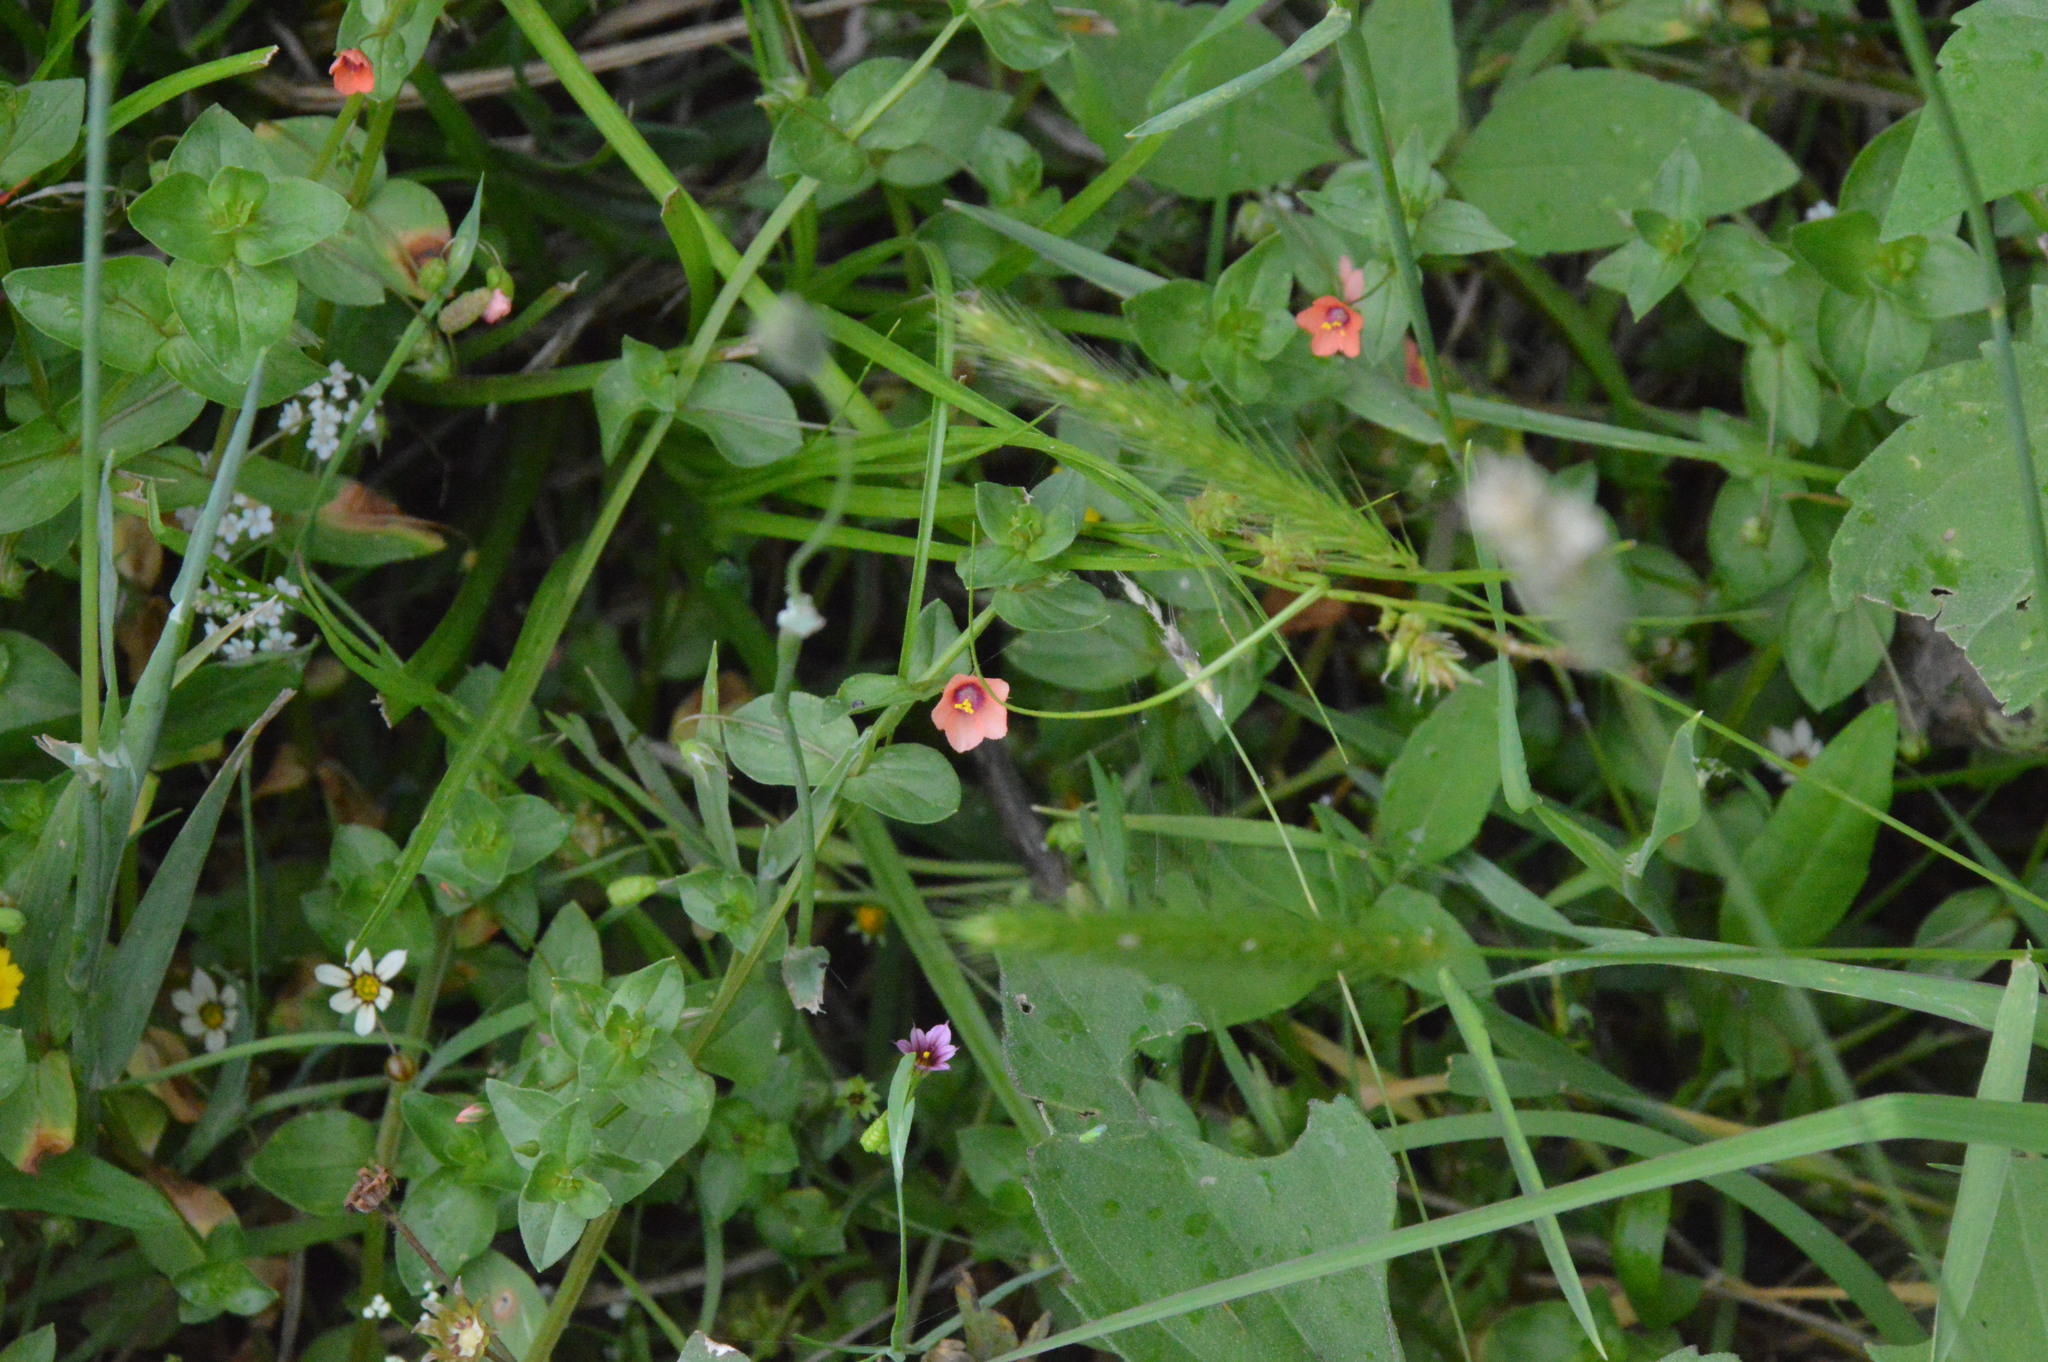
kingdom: Plantae
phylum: Tracheophyta
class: Magnoliopsida
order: Ericales
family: Primulaceae
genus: Lysimachia
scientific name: Lysimachia arvensis
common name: Scarlet pimpernel
